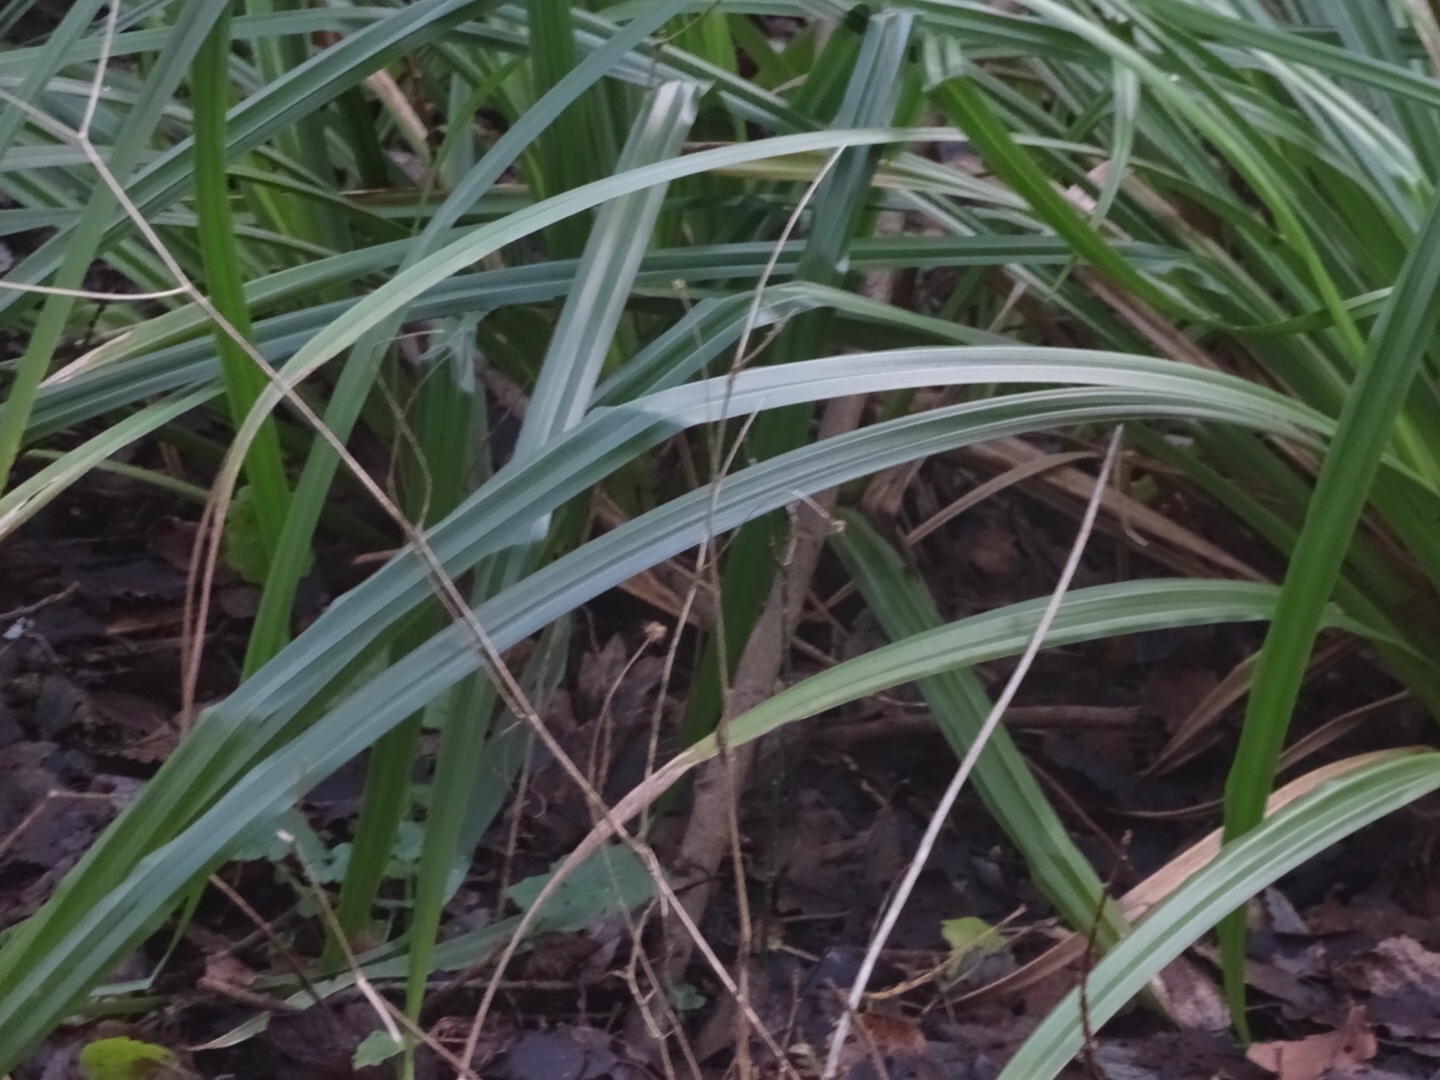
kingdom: Plantae
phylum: Tracheophyta
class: Liliopsida
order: Poales
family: Cyperaceae
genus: Carex
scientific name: Carex pendula
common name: Pendulous sedge
